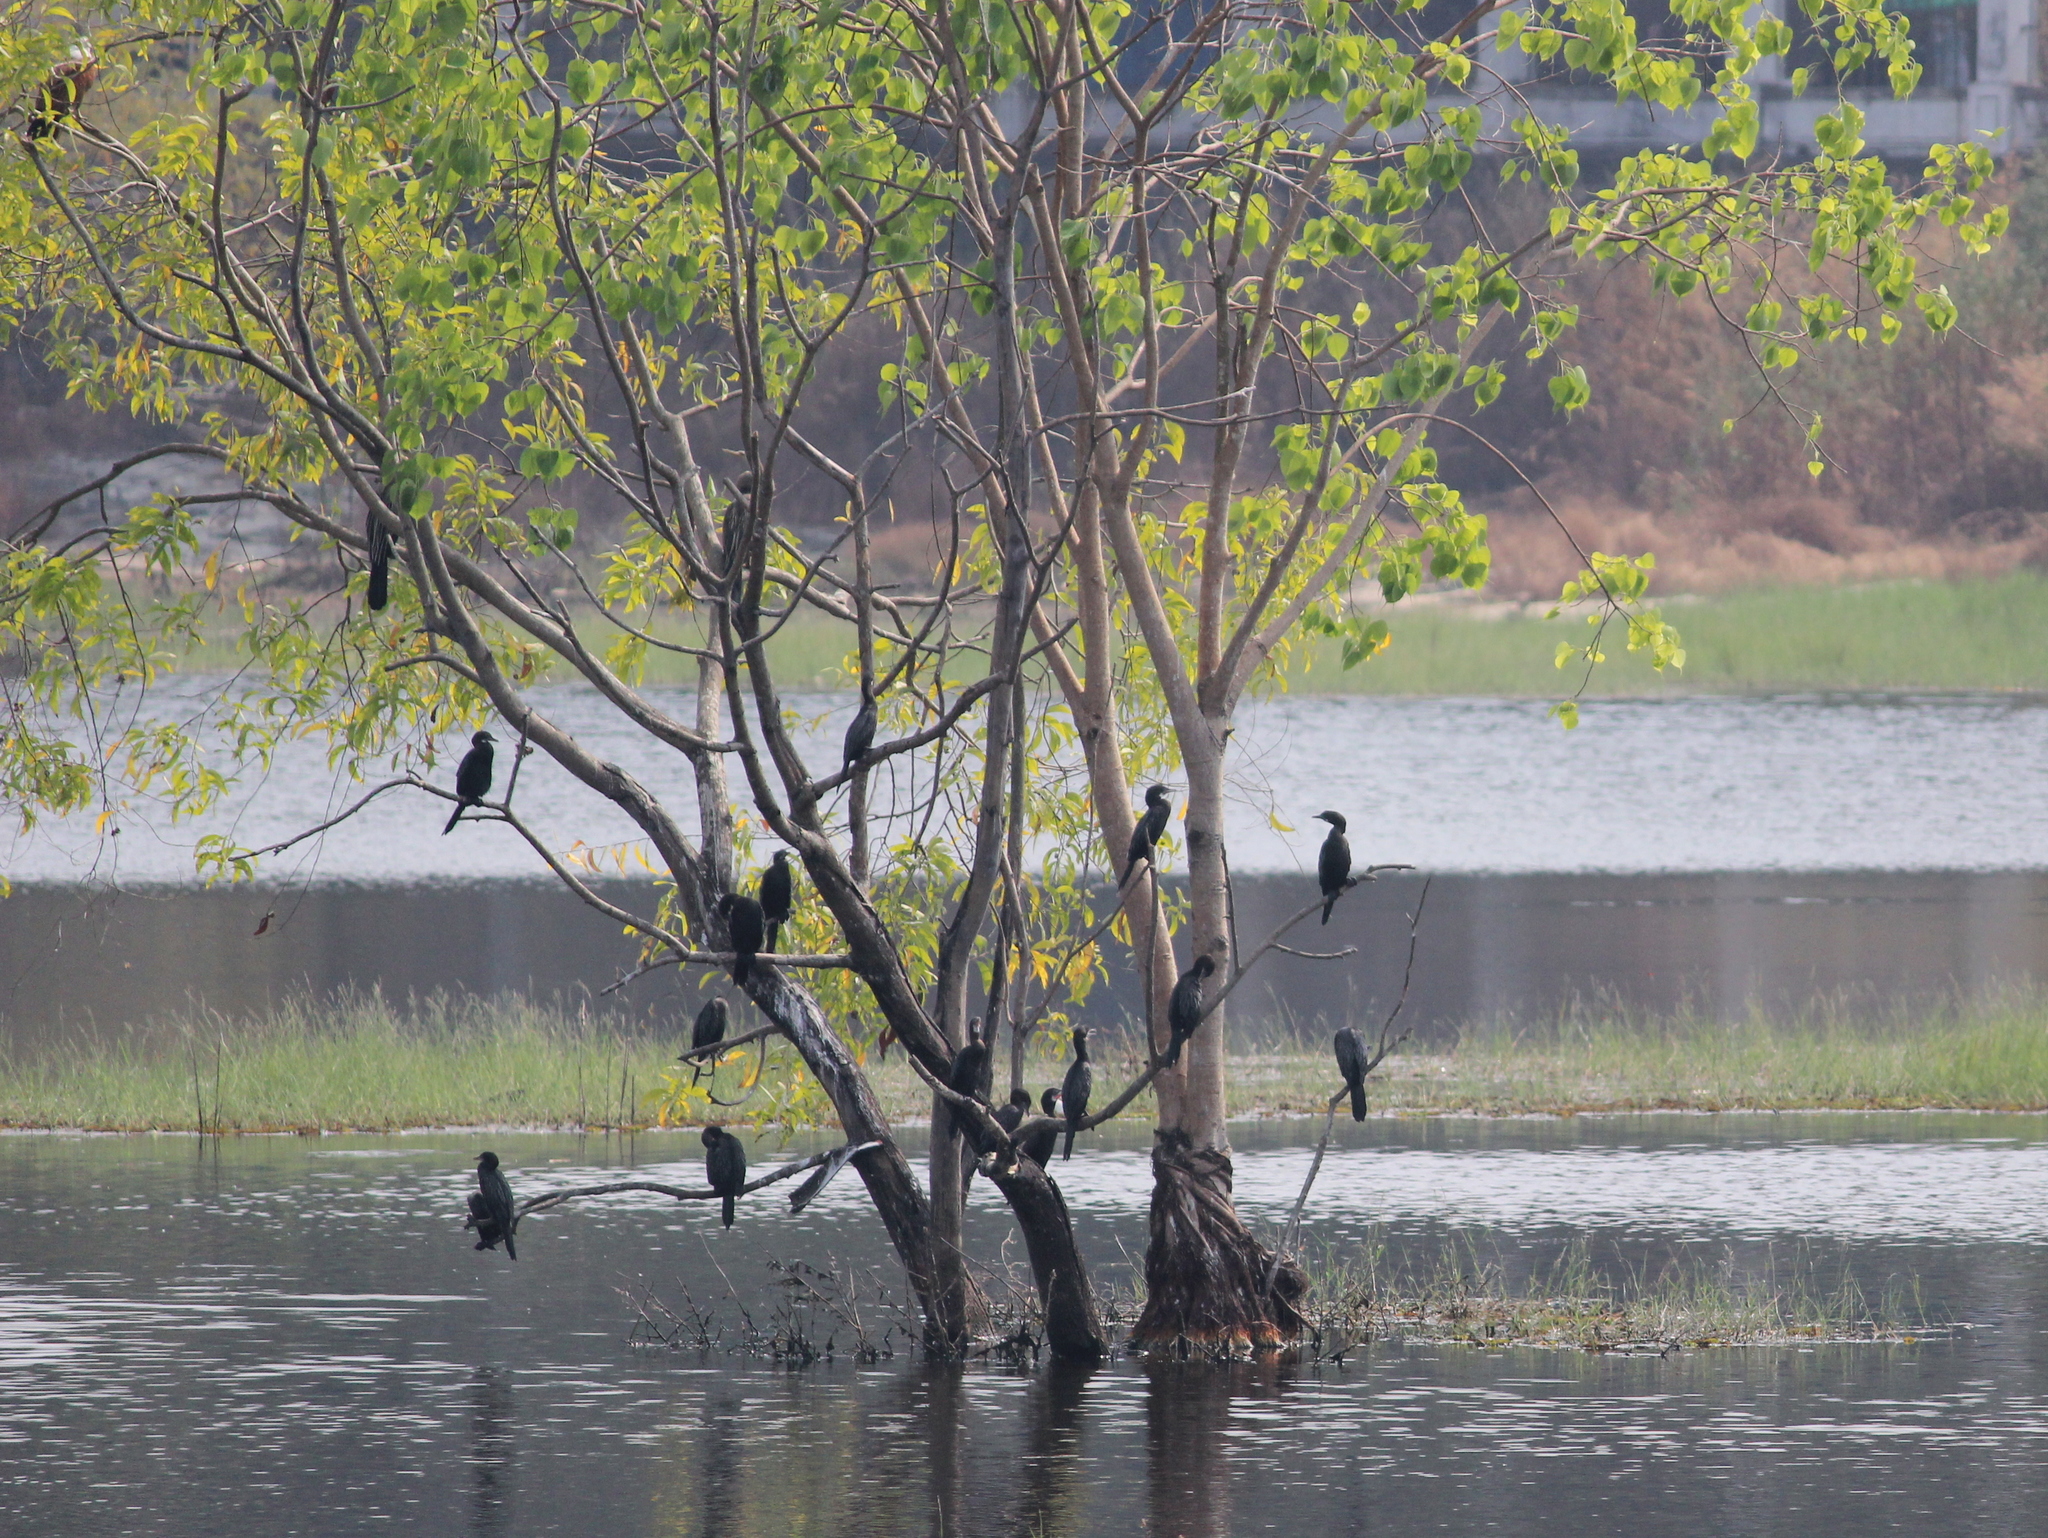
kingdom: Animalia
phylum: Chordata
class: Aves
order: Suliformes
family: Phalacrocoracidae
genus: Phalacrocorax
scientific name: Phalacrocorax fuscicollis
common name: Indian cormorant
